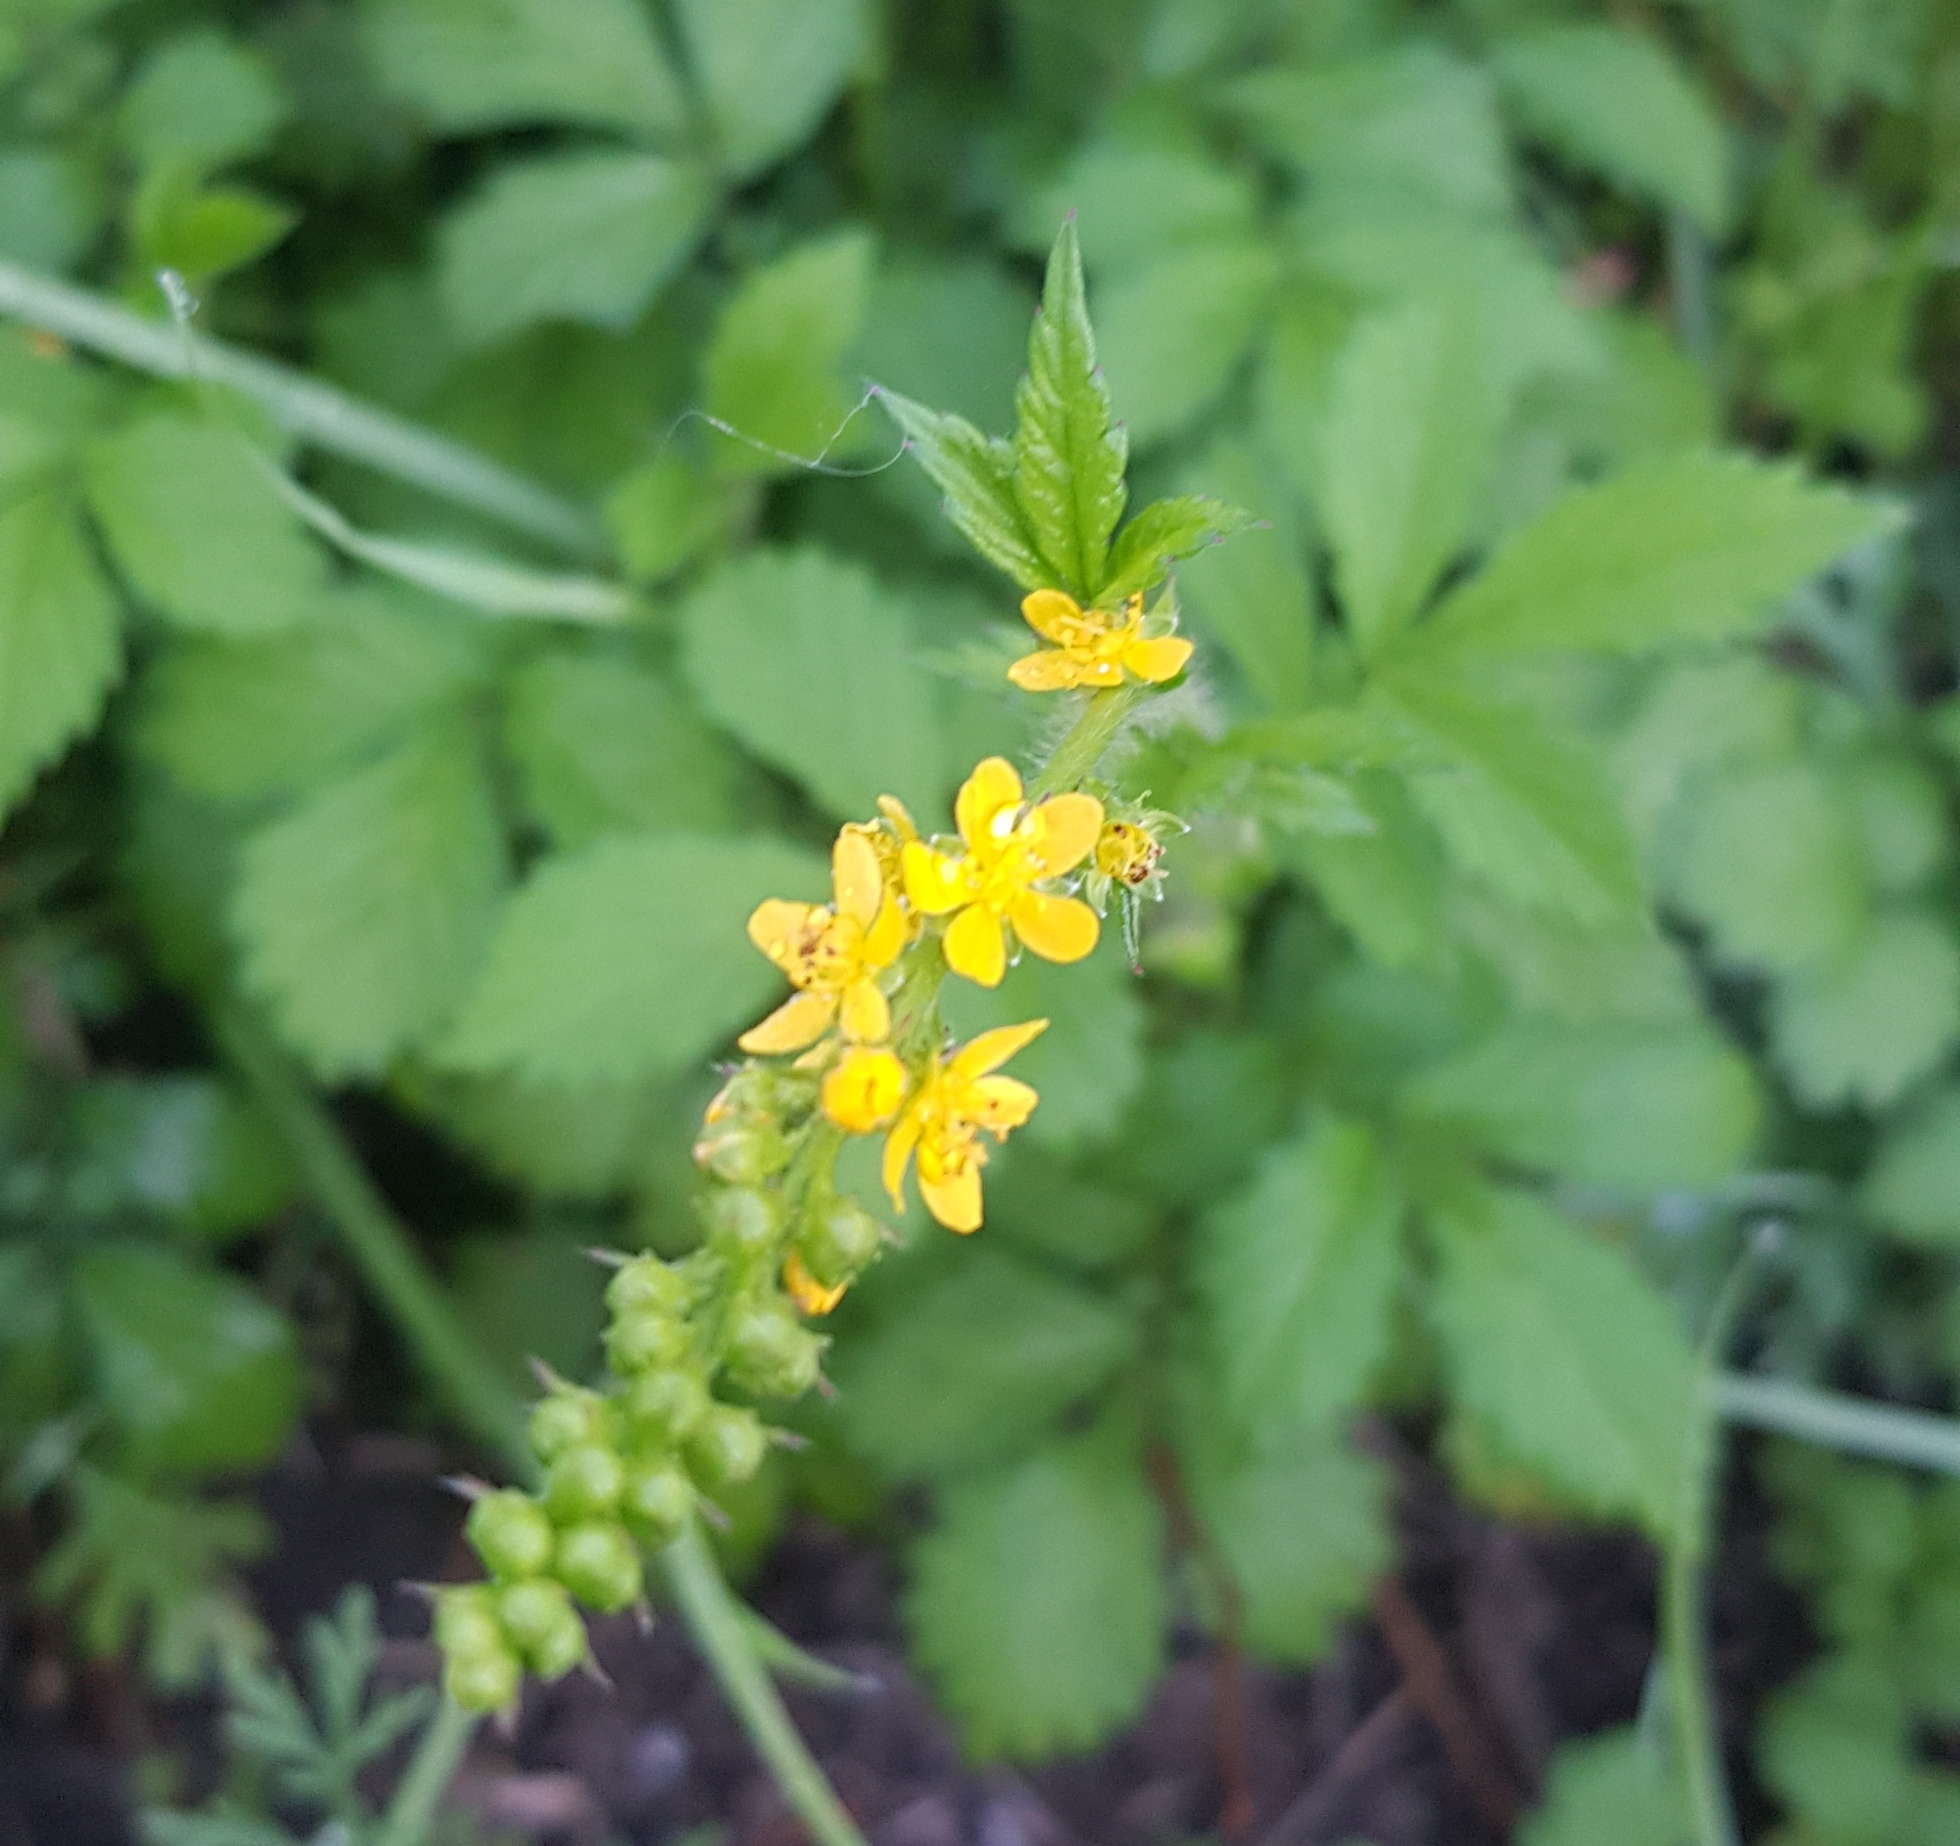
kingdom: Plantae
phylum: Tracheophyta
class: Magnoliopsida
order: Rosales
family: Rosaceae
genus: Agrimonia
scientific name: Agrimonia pilosa
